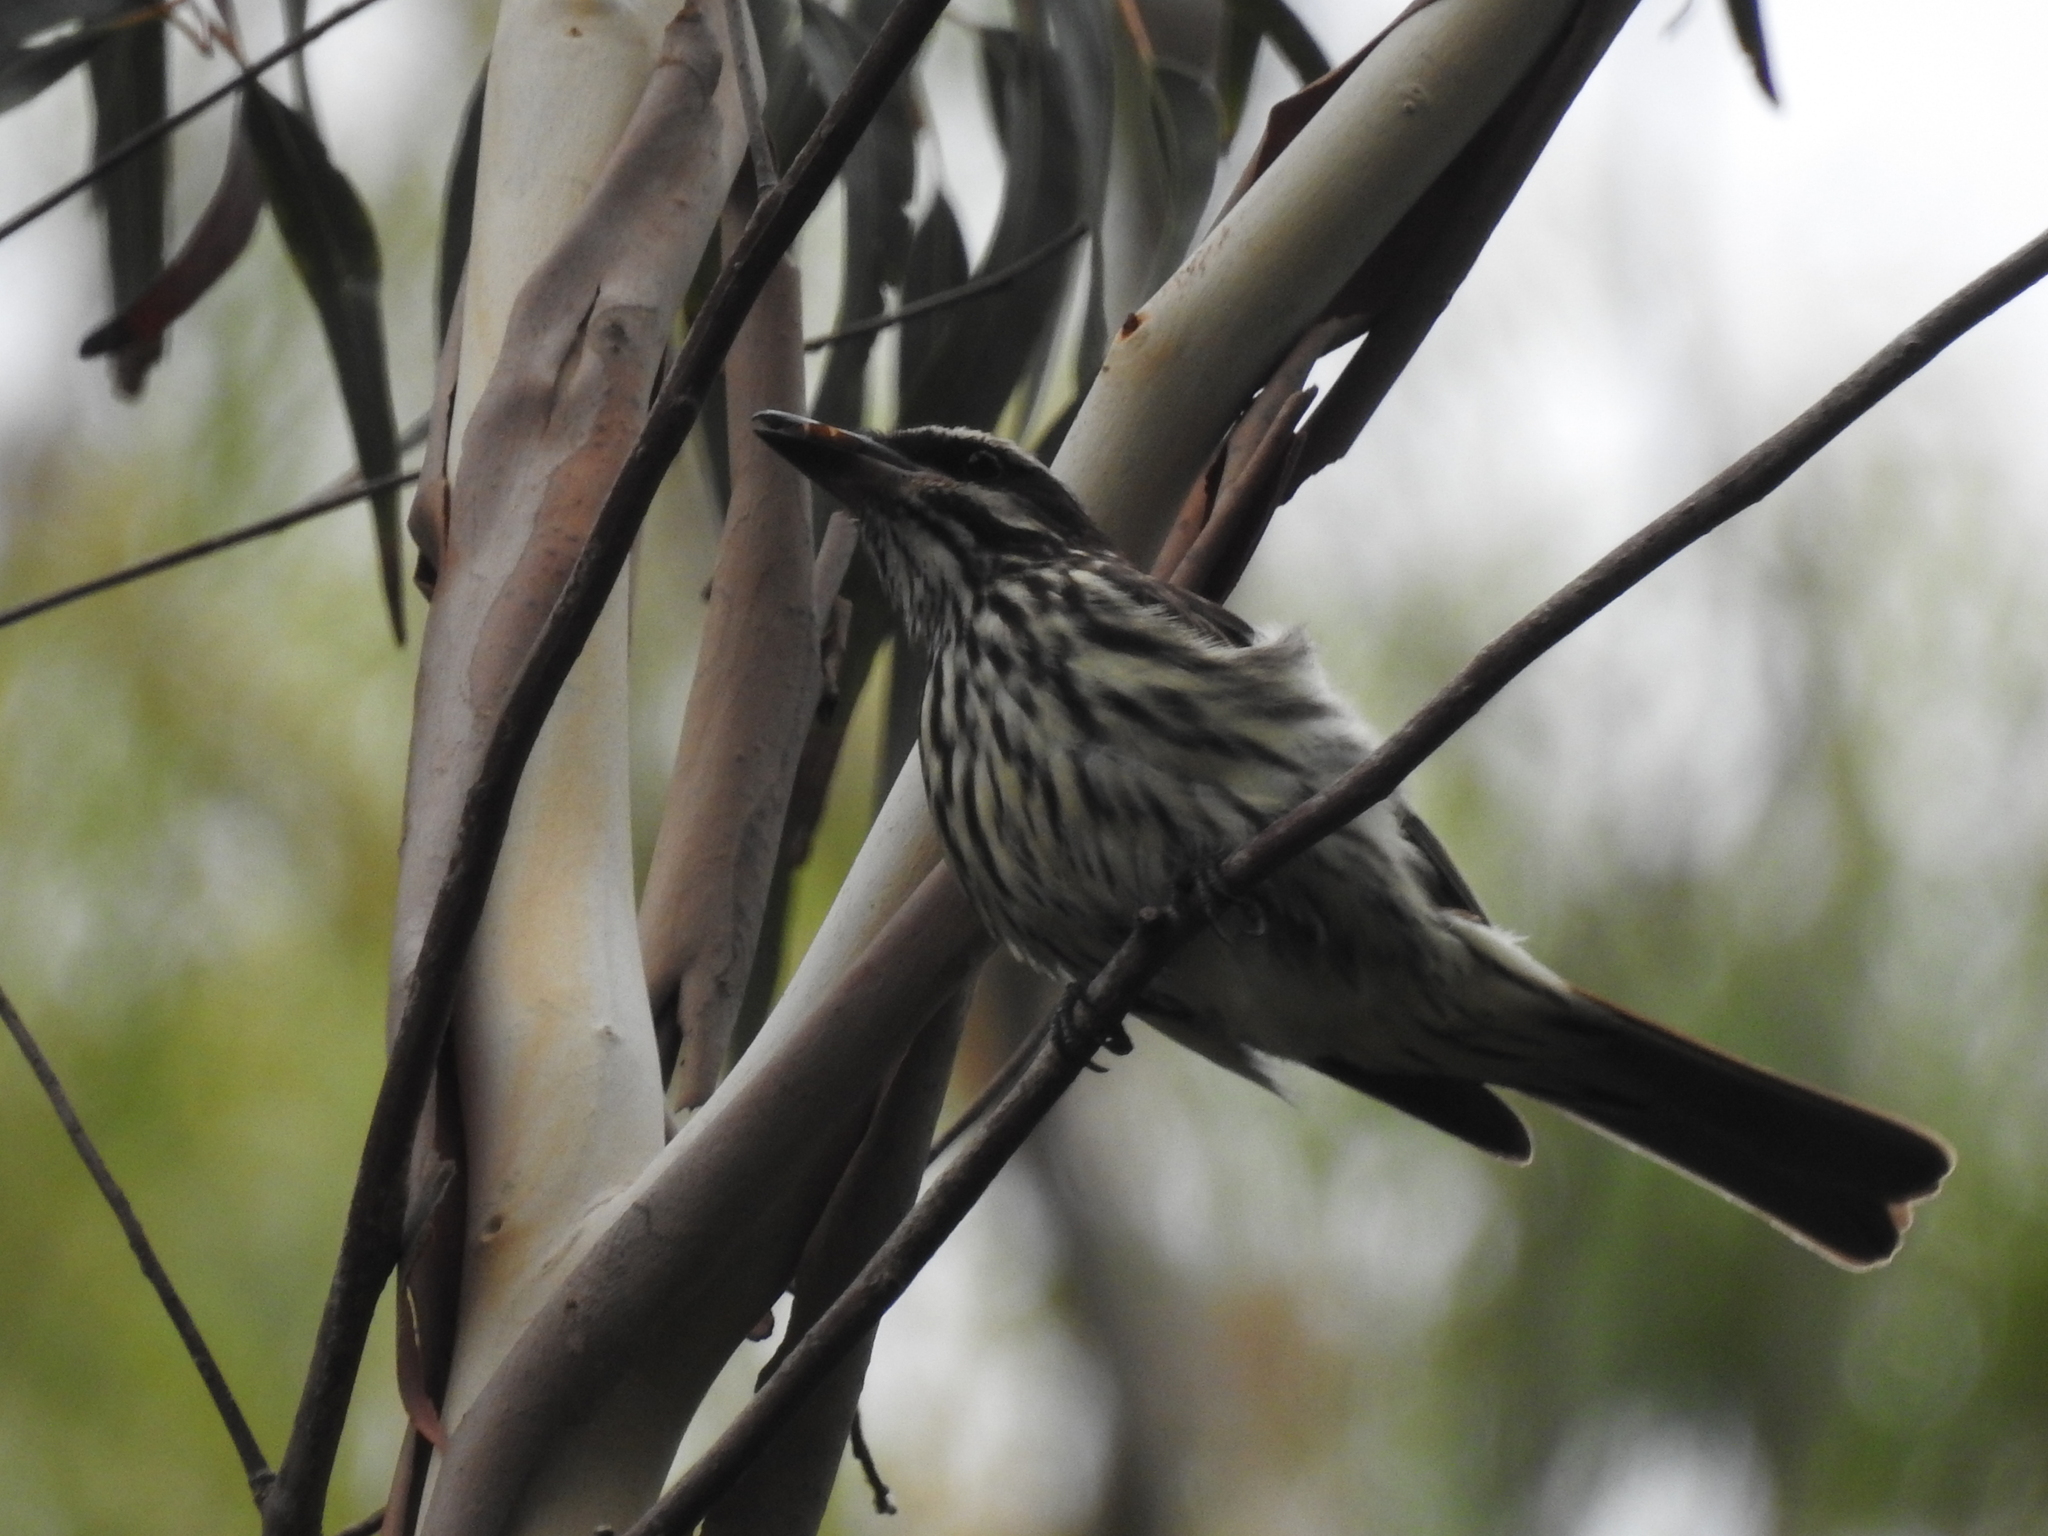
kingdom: Animalia
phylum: Chordata
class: Aves
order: Passeriformes
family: Tyrannidae
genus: Myiodynastes
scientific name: Myiodynastes maculatus
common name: Streaked flycatcher
